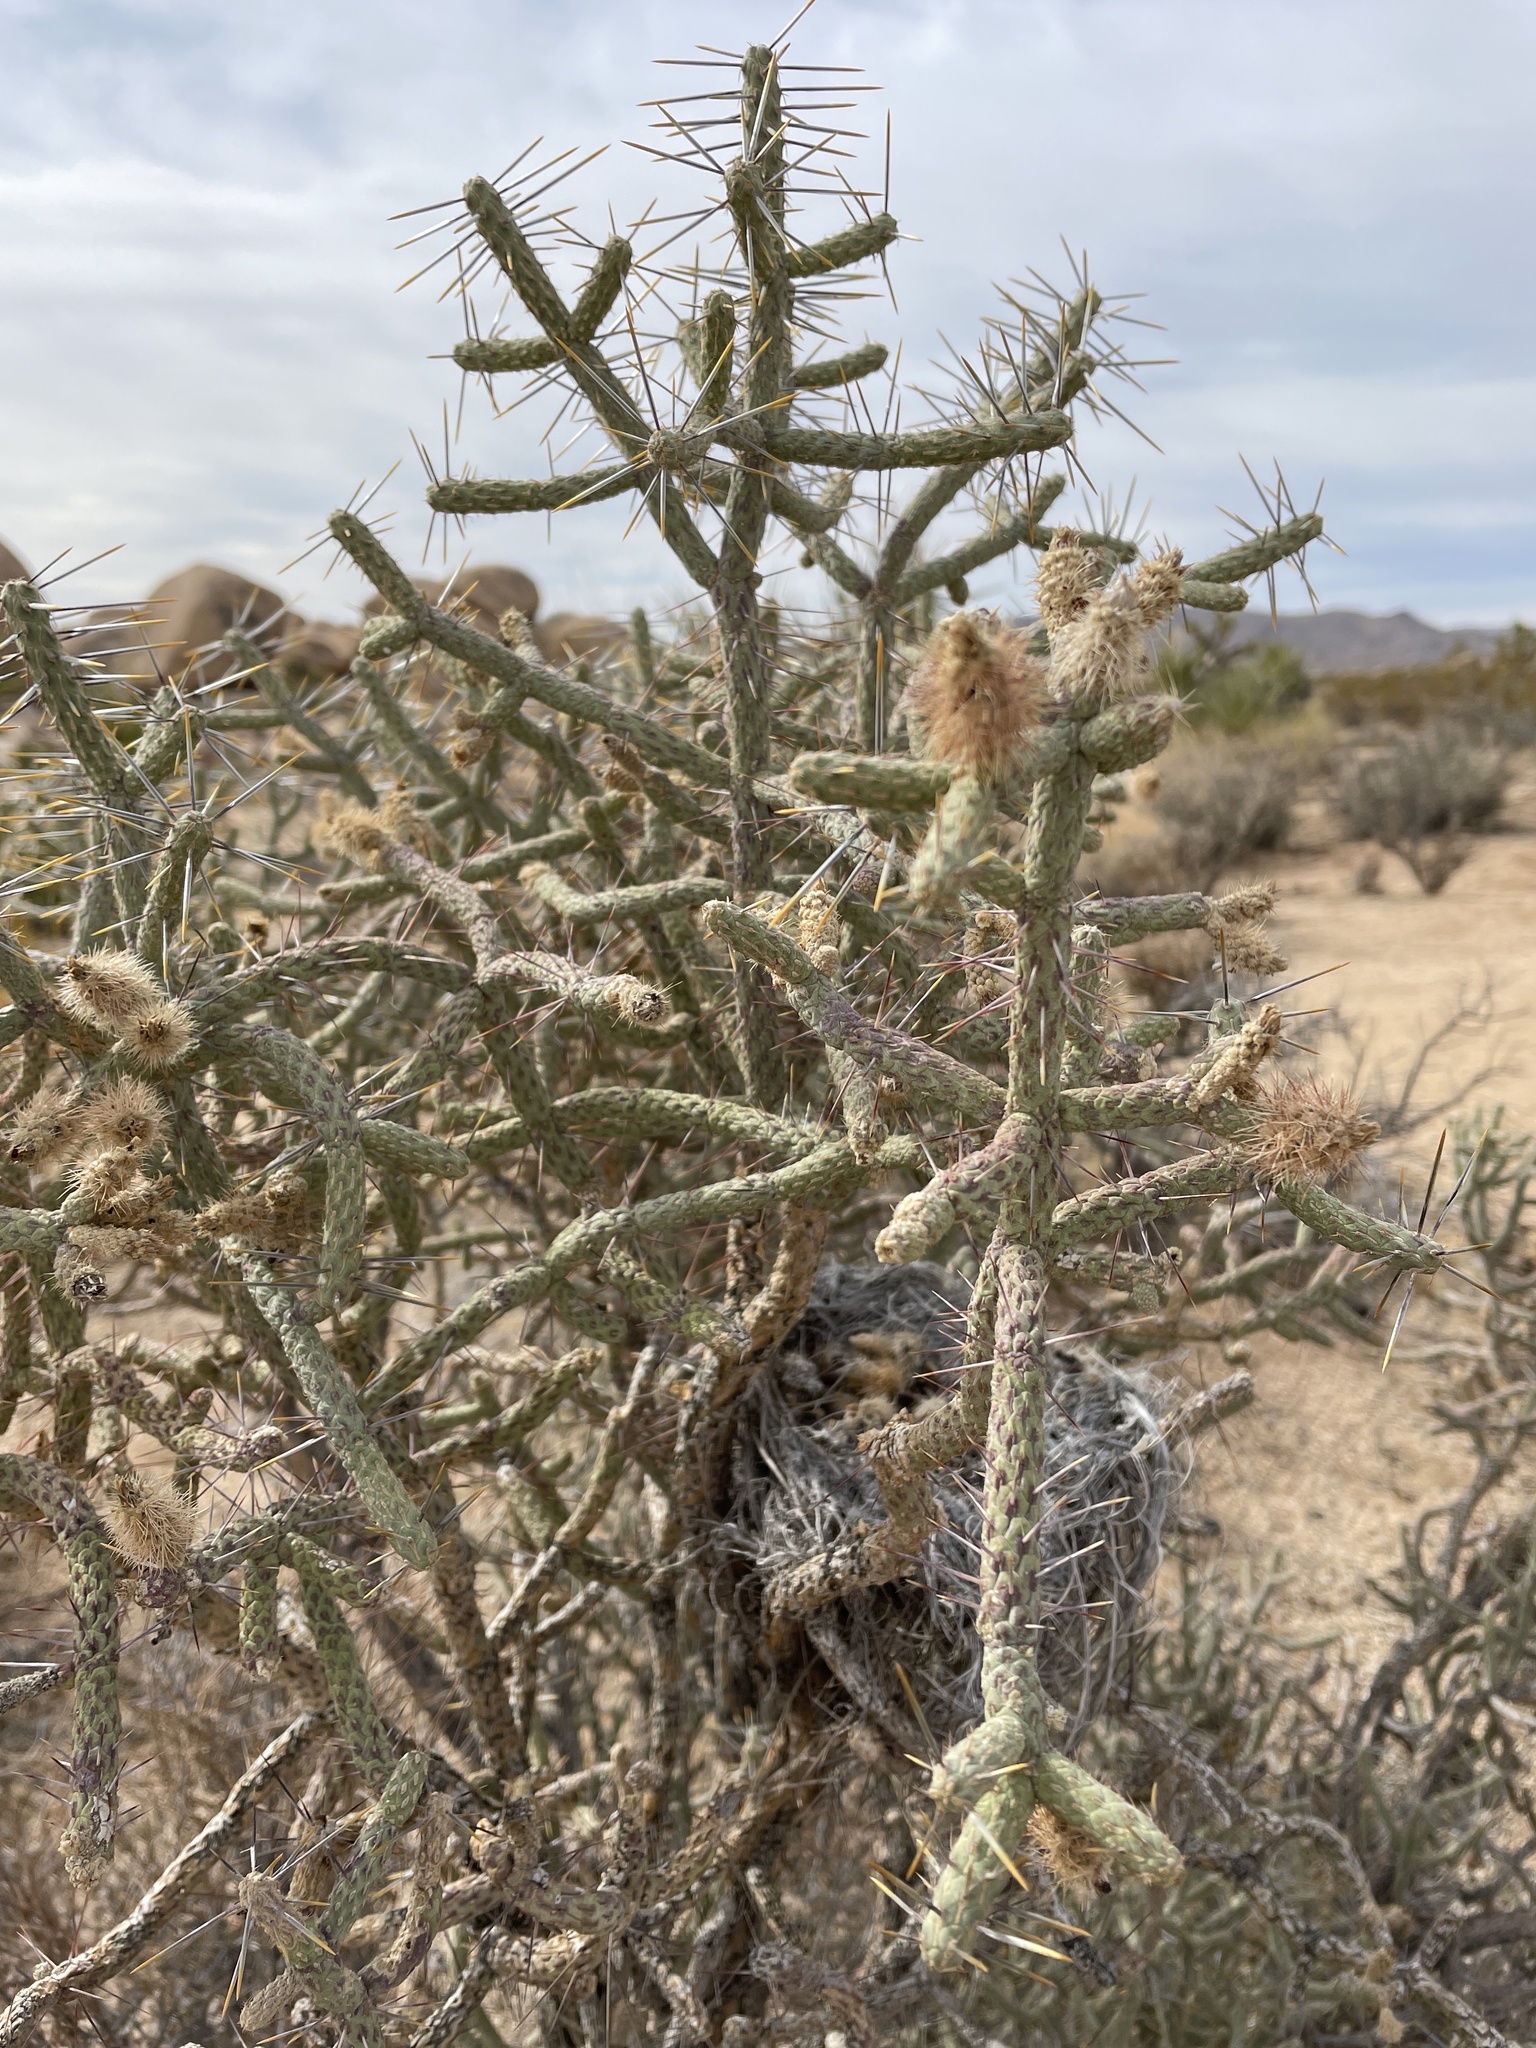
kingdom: Plantae
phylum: Tracheophyta
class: Magnoliopsida
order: Caryophyllales
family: Cactaceae
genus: Cylindropuntia
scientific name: Cylindropuntia ramosissima
